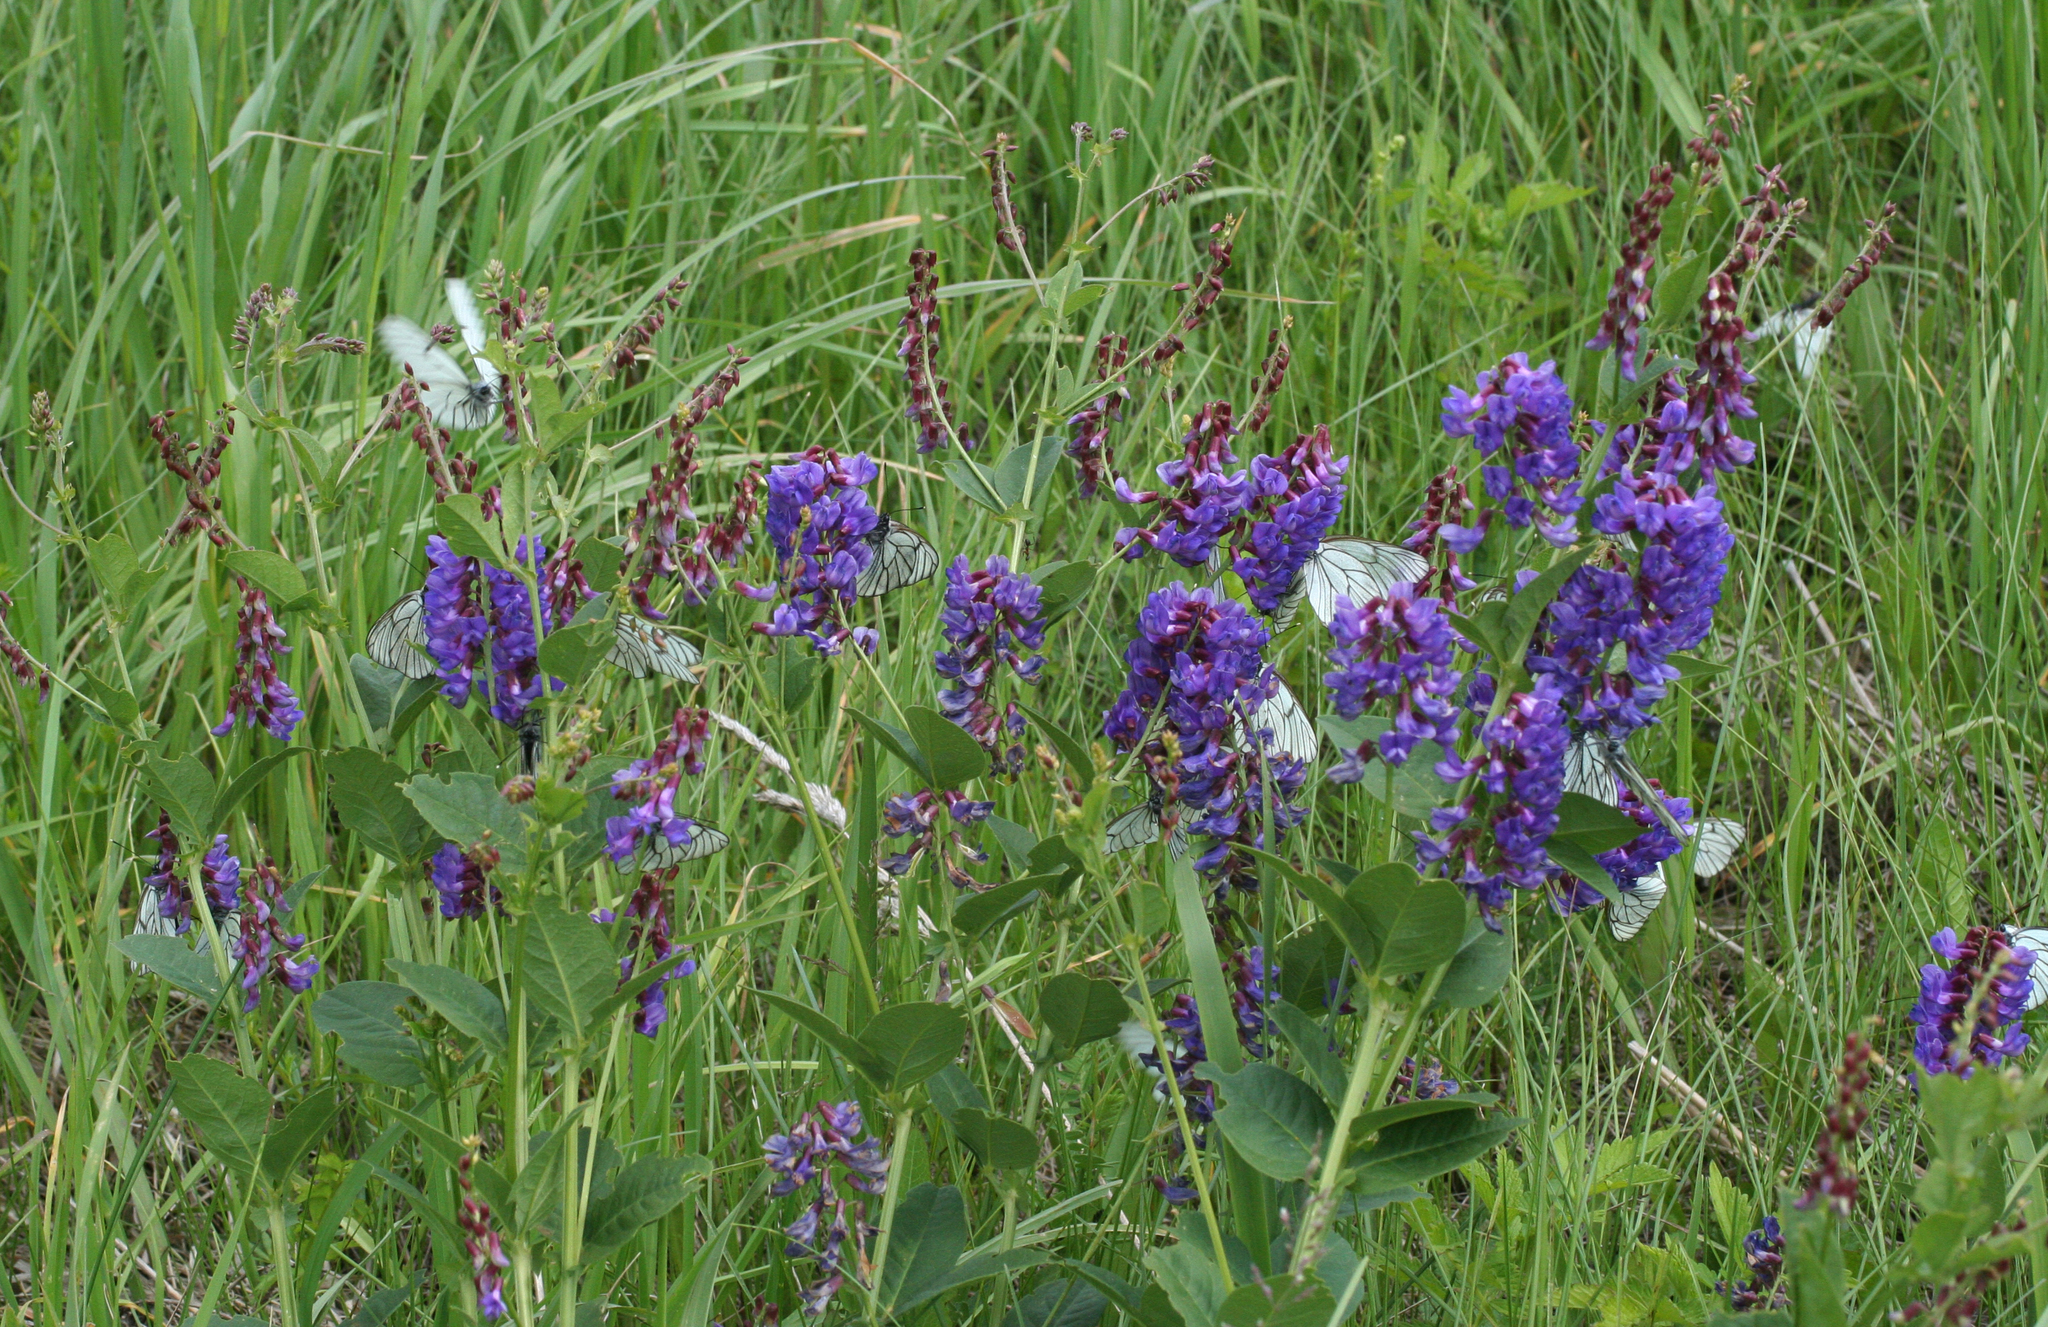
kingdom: Plantae
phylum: Tracheophyta
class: Magnoliopsida
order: Fabales
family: Fabaceae
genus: Vicia
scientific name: Vicia unijuga
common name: Two-leaf vetch
